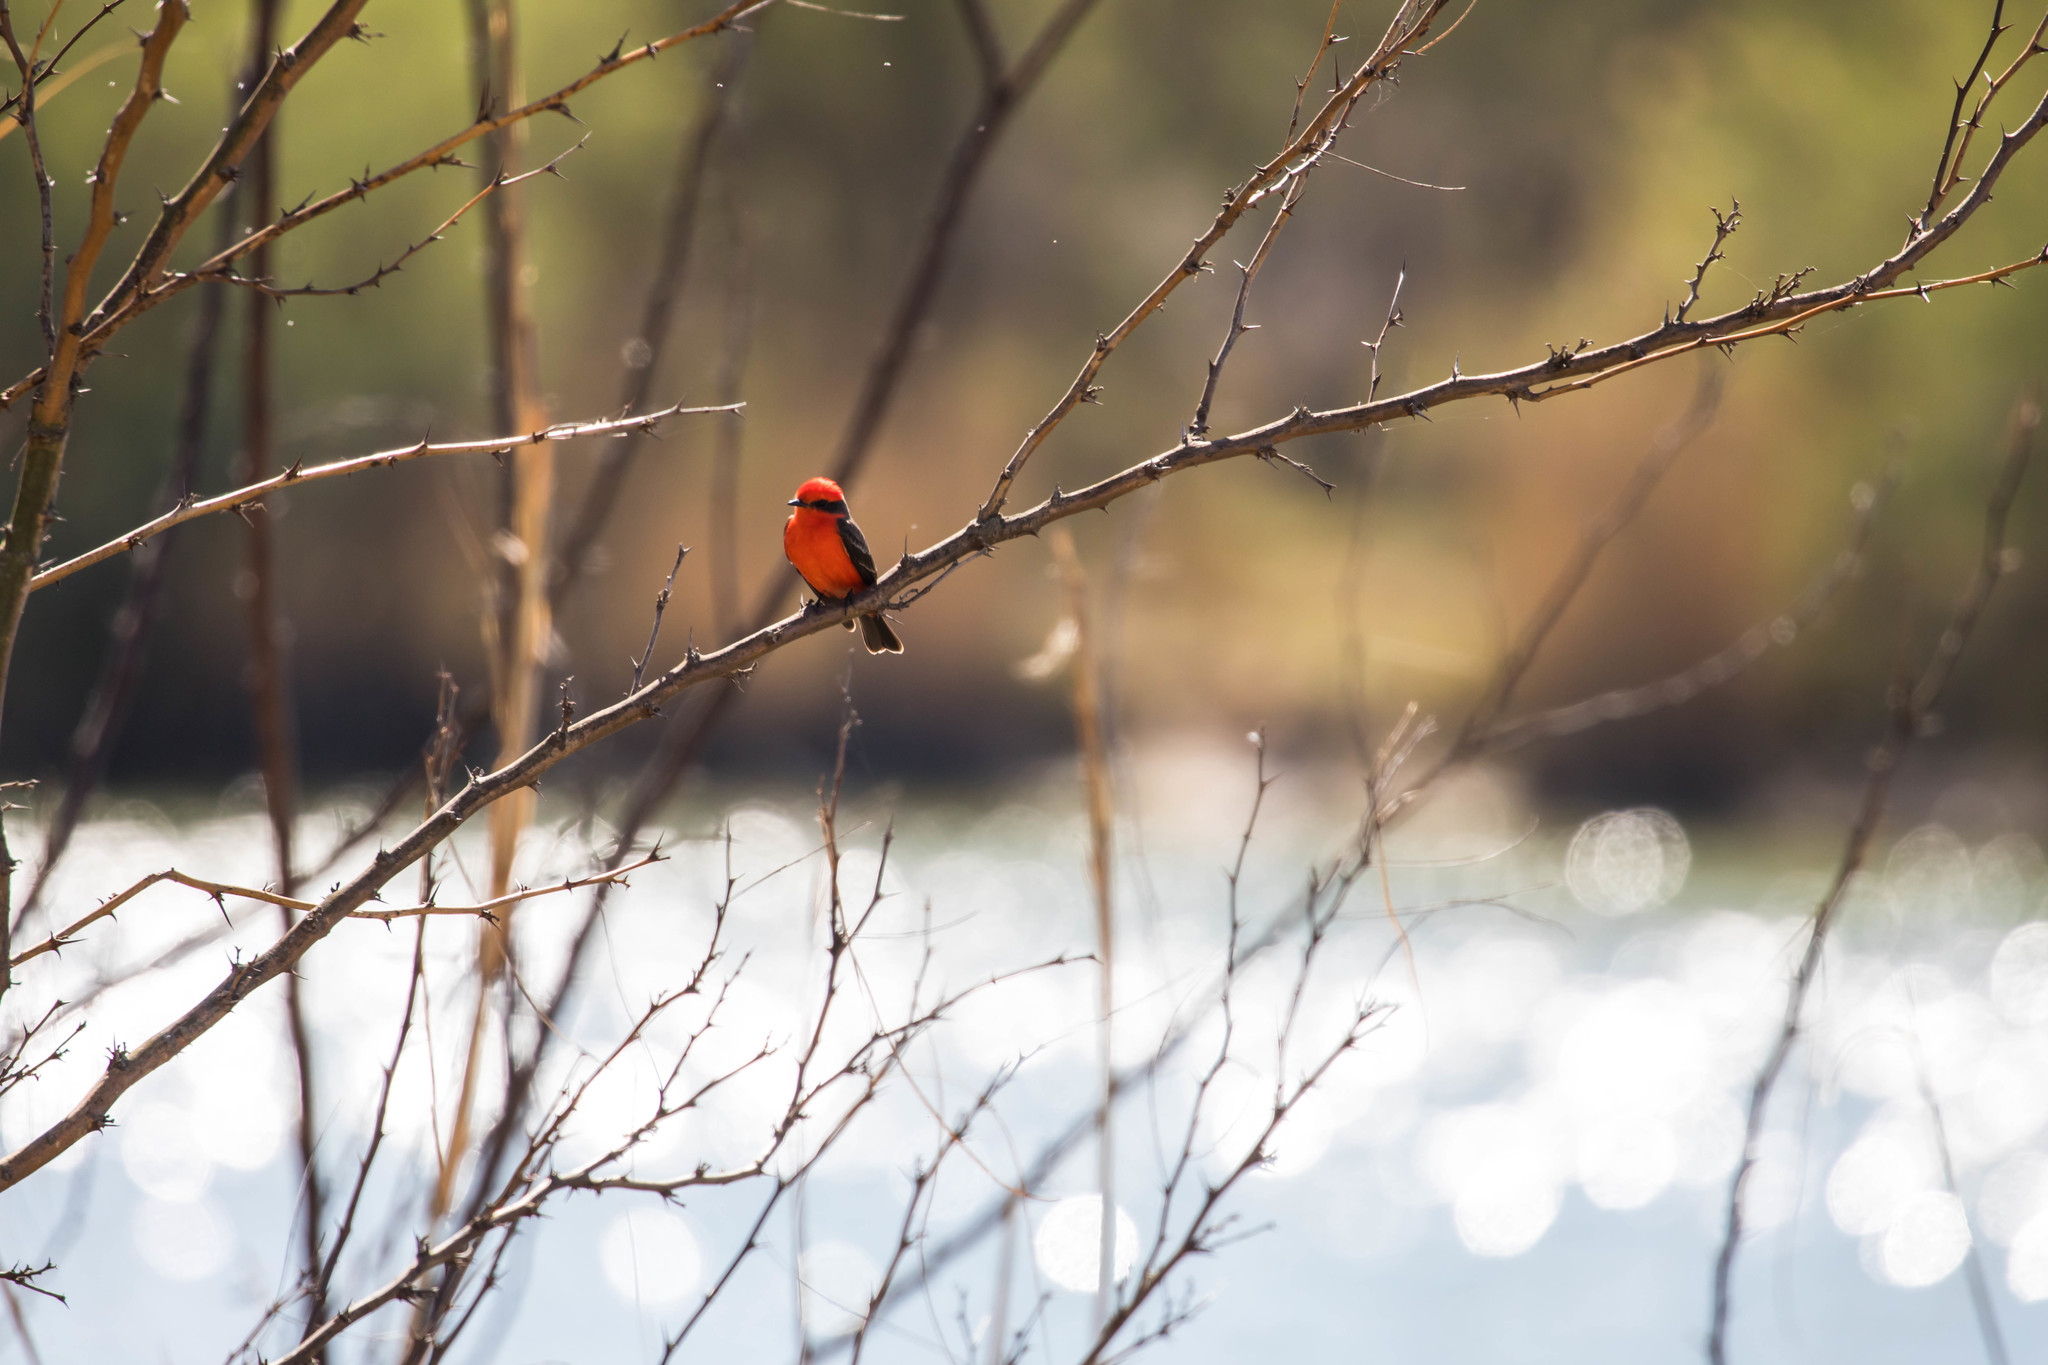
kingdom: Animalia
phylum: Chordata
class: Aves
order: Passeriformes
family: Tyrannidae
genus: Pyrocephalus
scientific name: Pyrocephalus rubinus
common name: Vermilion flycatcher
